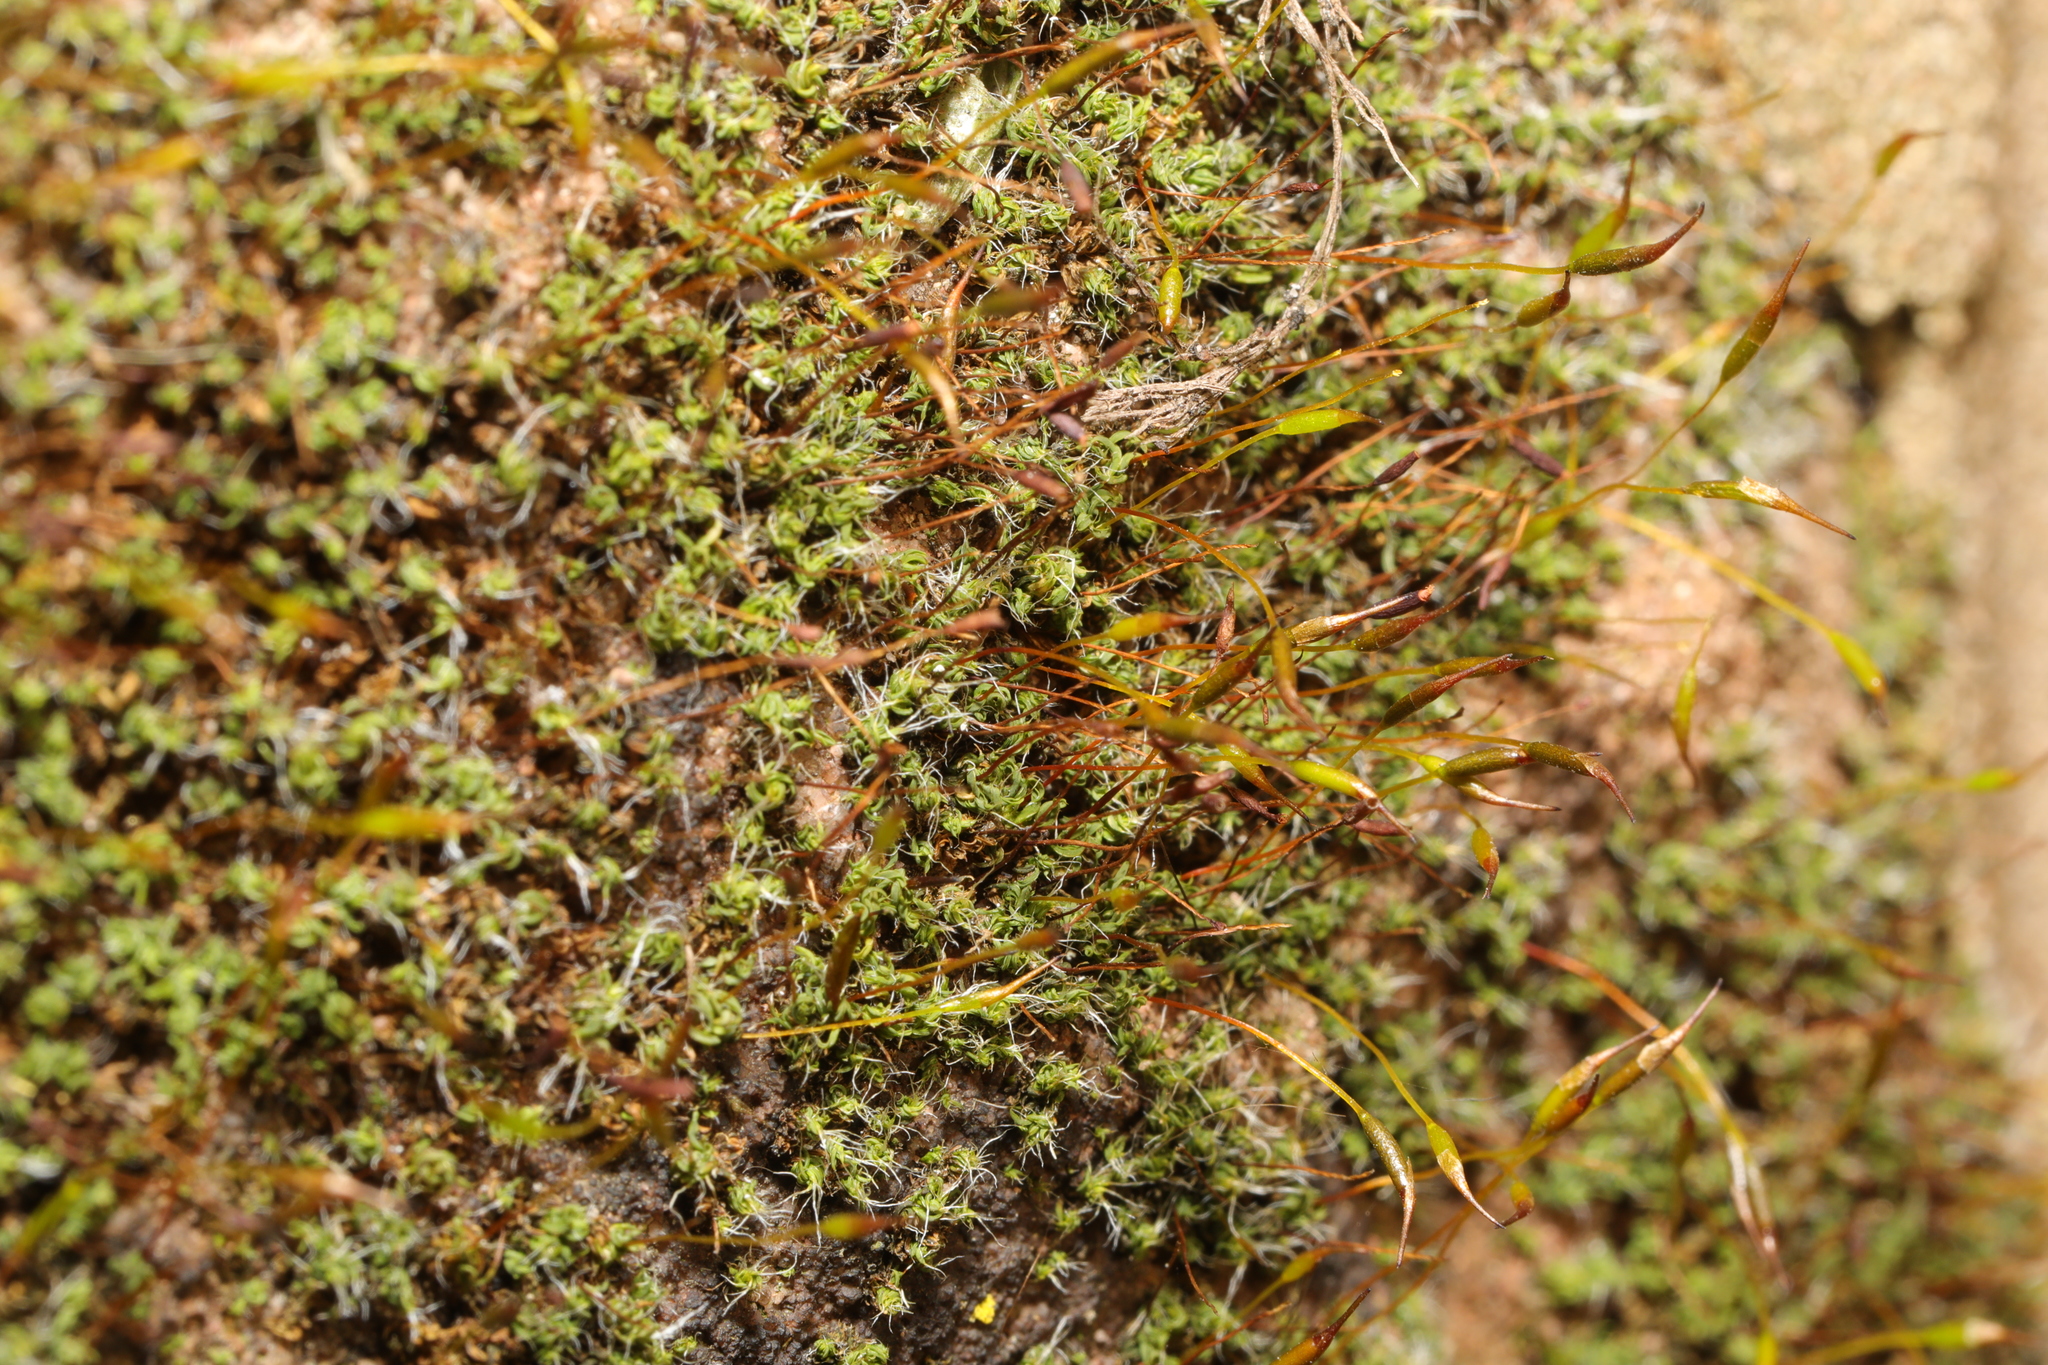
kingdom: Plantae
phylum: Bryophyta
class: Bryopsida
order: Pottiales
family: Pottiaceae
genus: Tortula
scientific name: Tortula muralis
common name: Wall screw-moss
